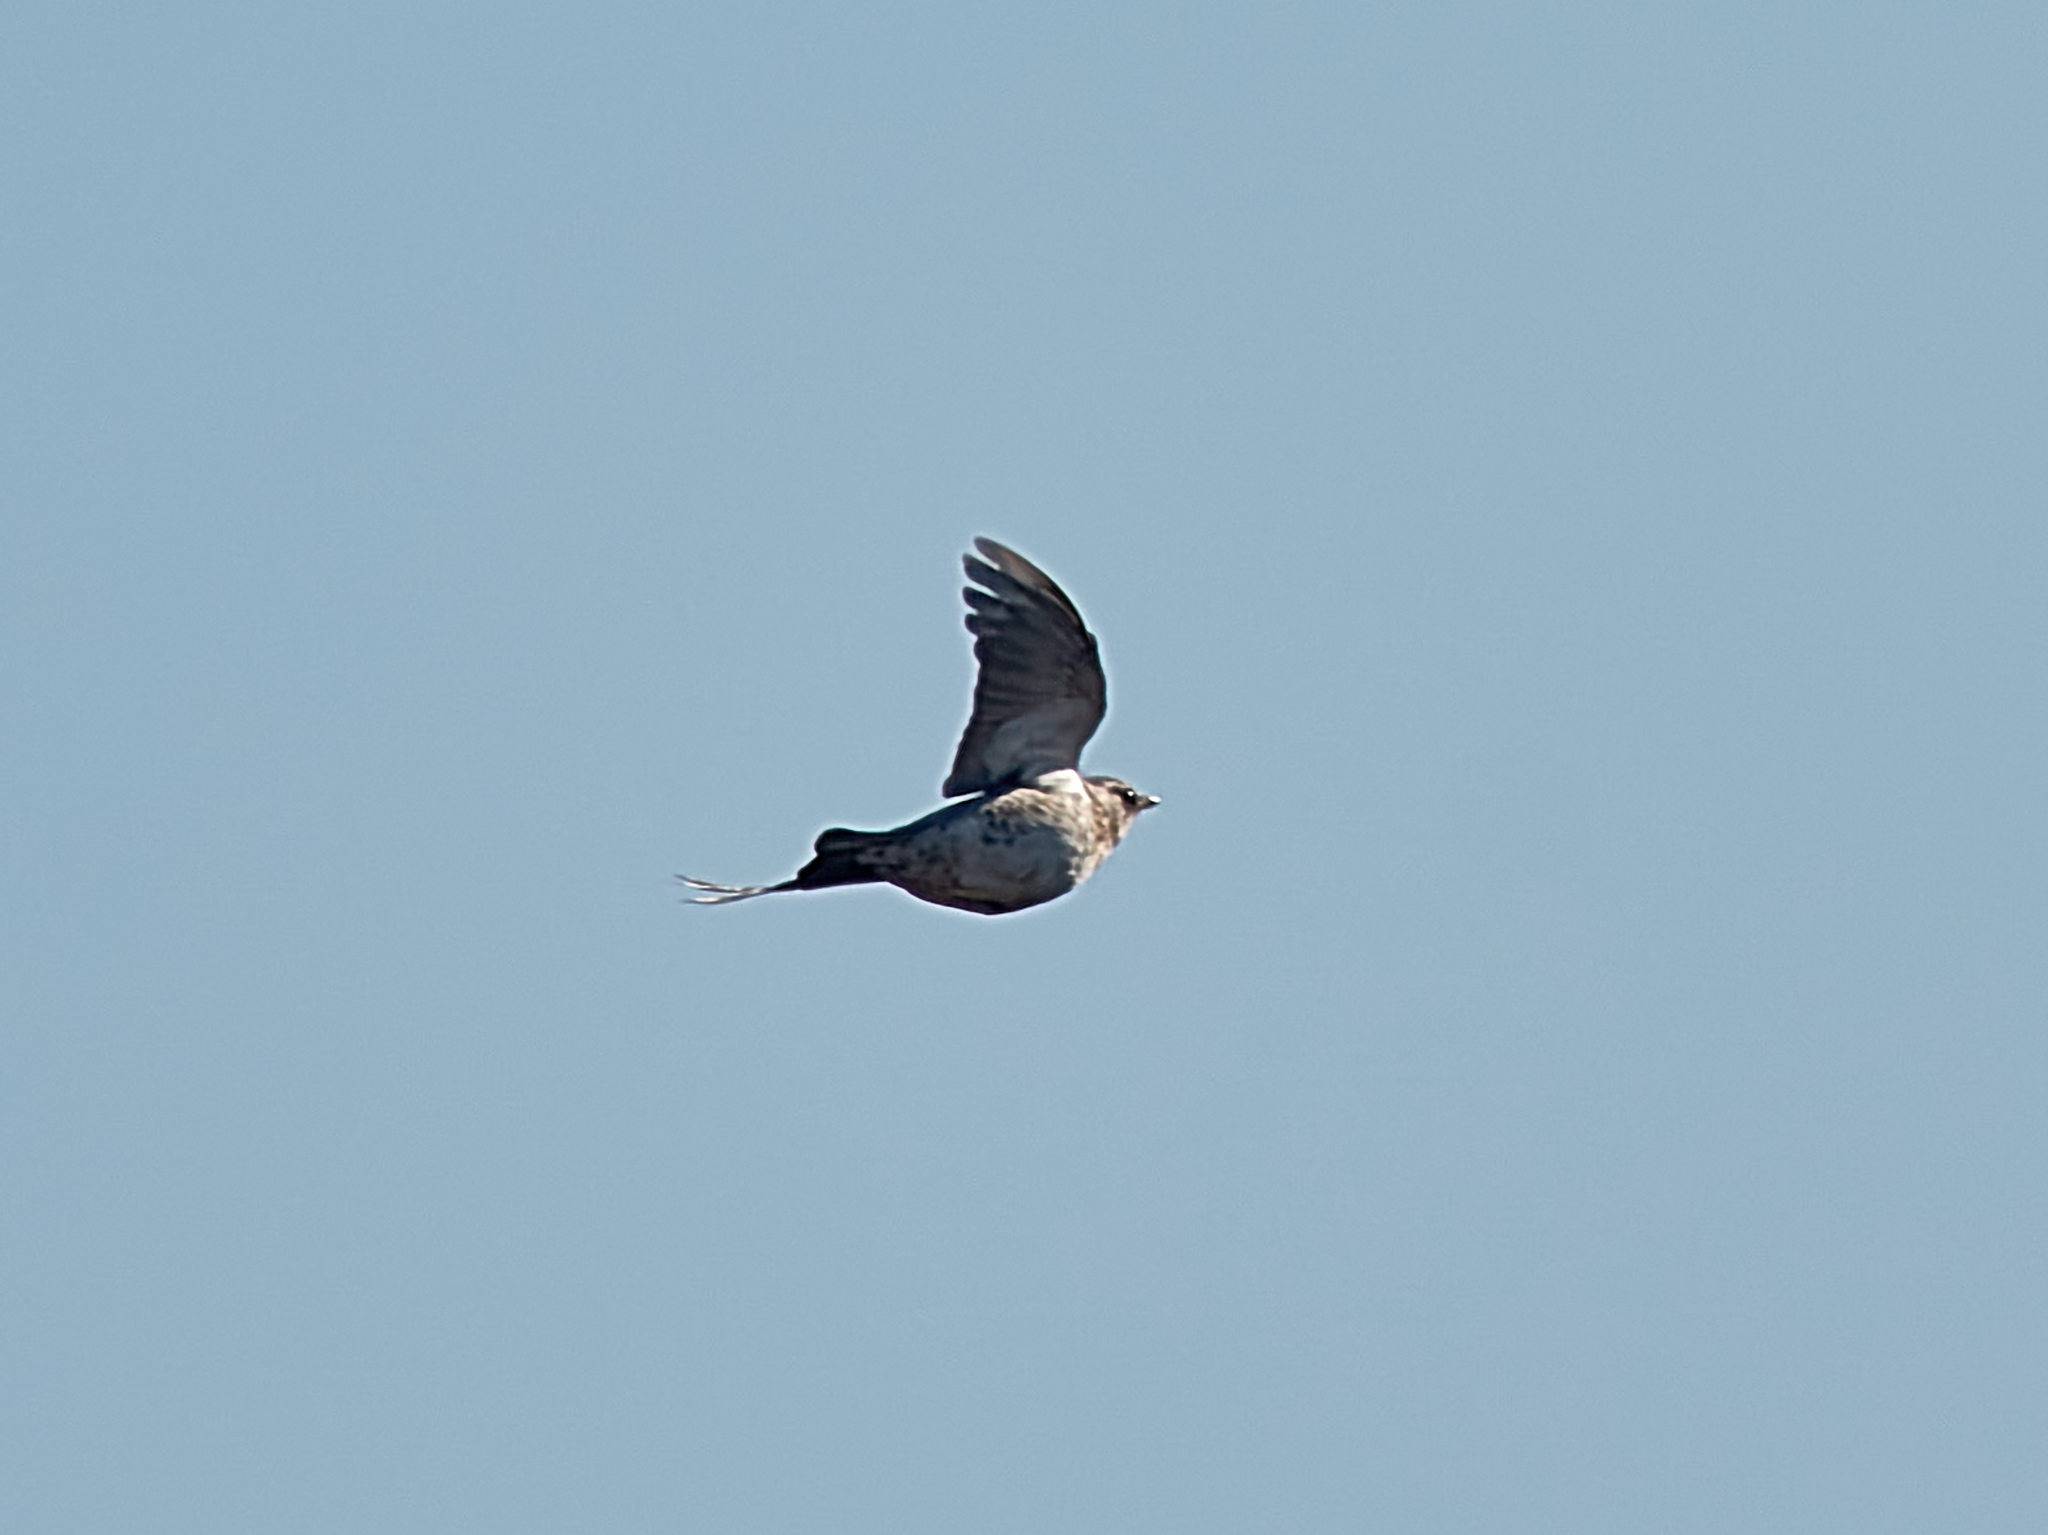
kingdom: Animalia
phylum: Chordata
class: Aves
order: Passeriformes
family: Turdidae
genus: Turdus
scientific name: Turdus pilaris
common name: Fieldfare
